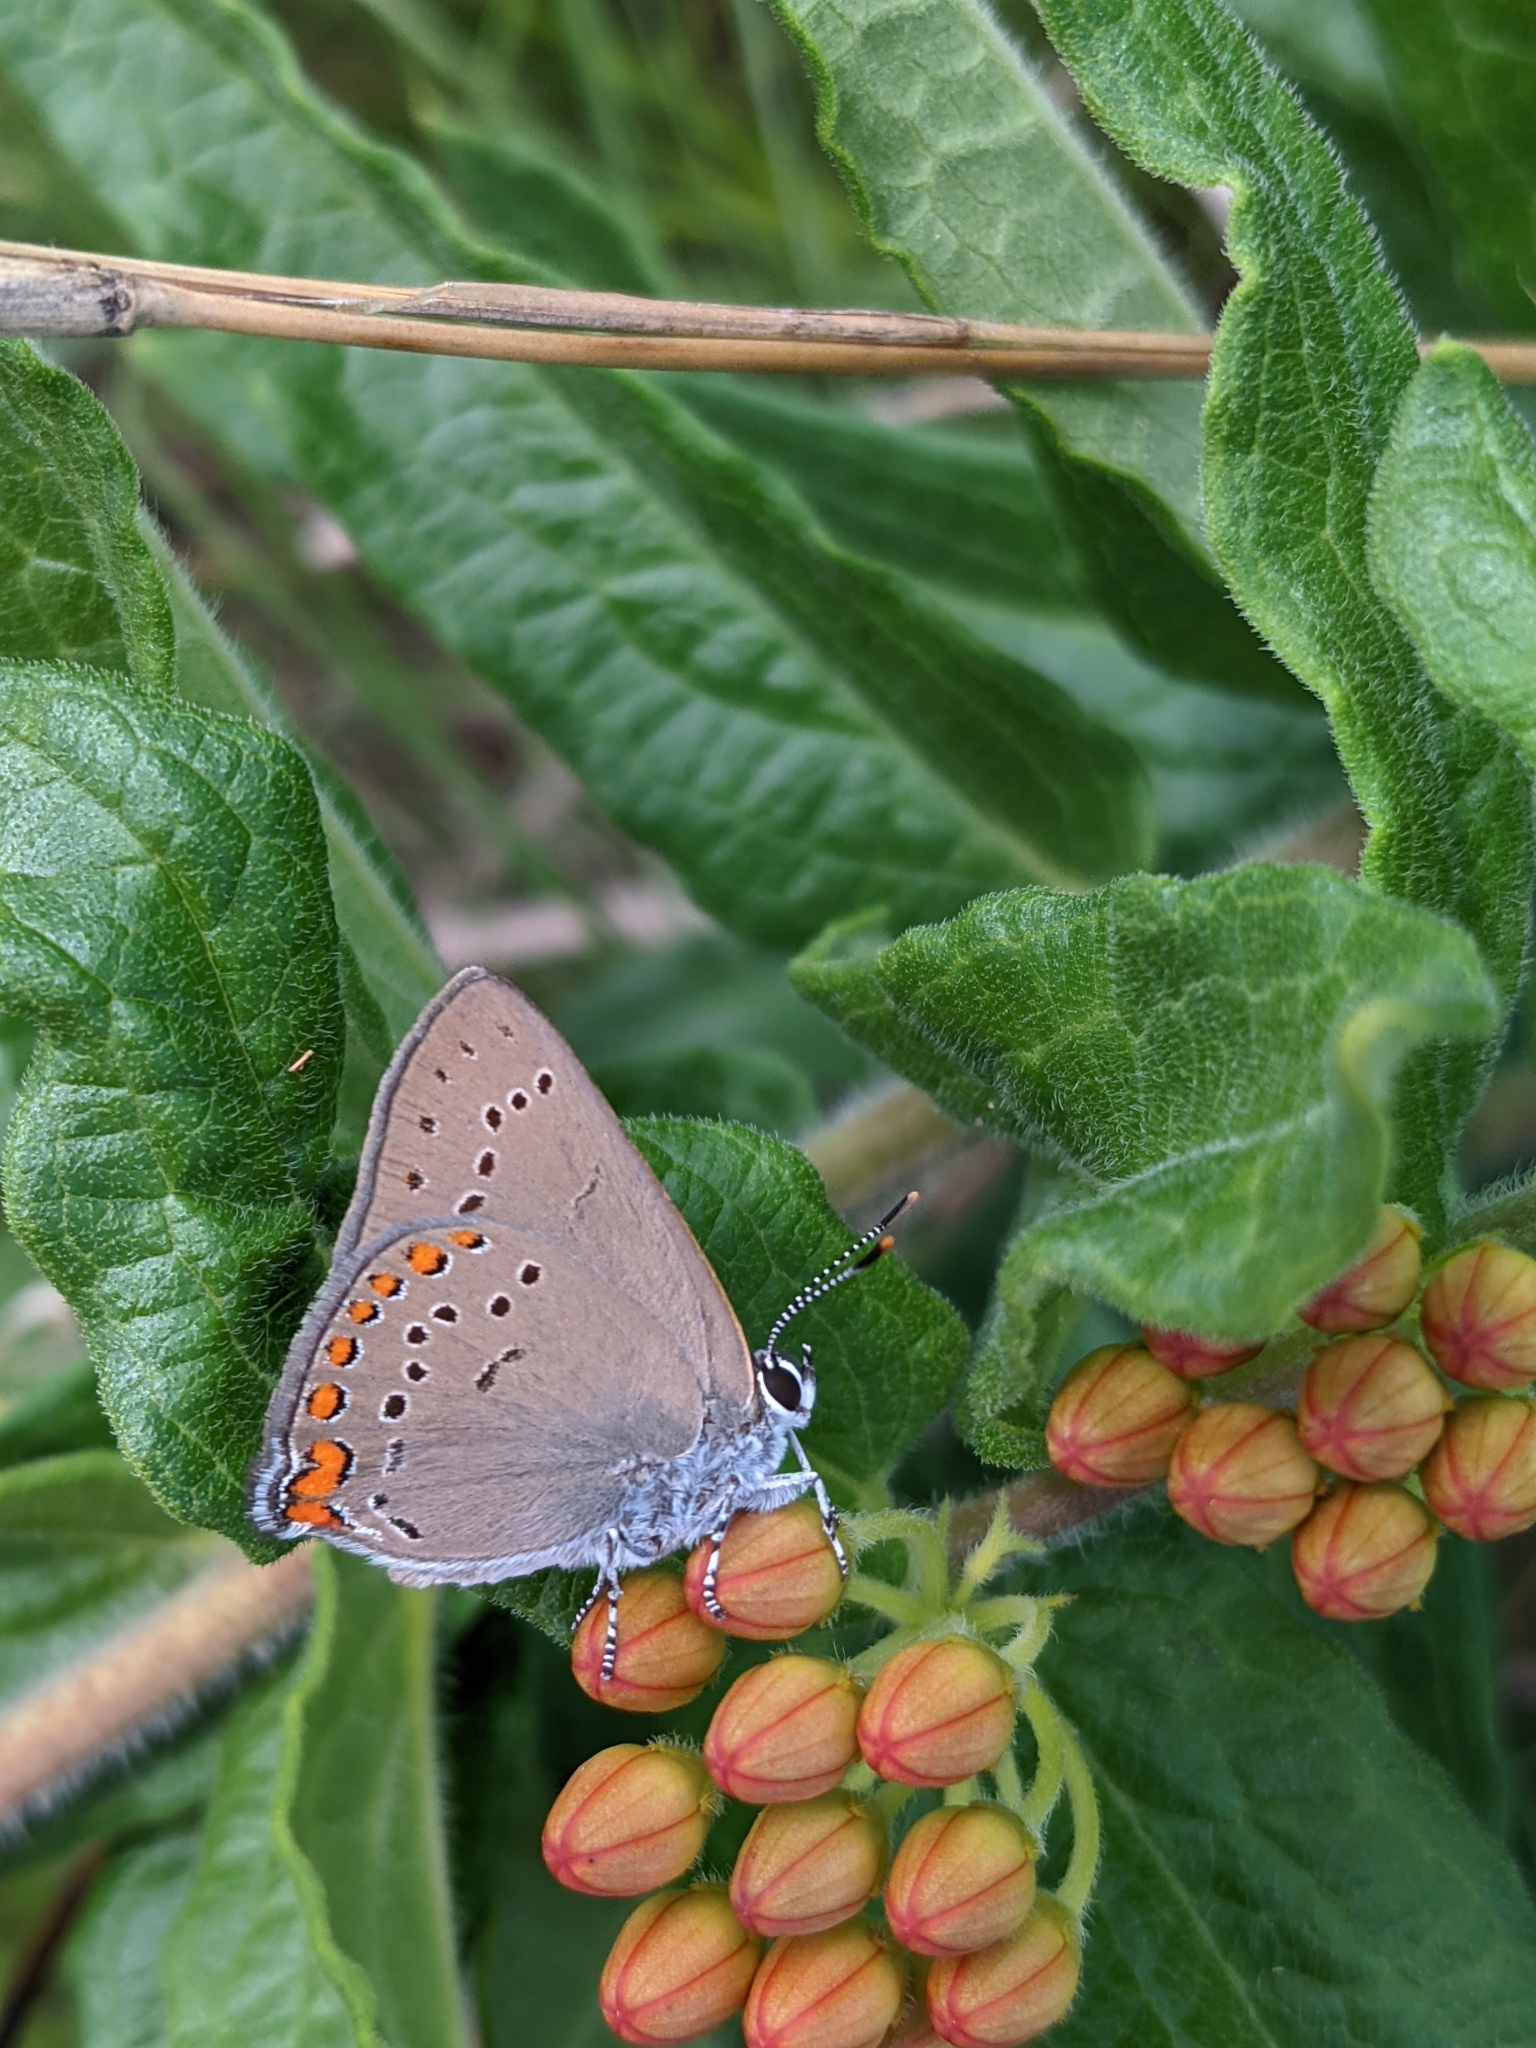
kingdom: Animalia
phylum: Arthropoda
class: Insecta
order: Lepidoptera
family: Lycaenidae
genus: Harkenclenus
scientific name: Harkenclenus titus
